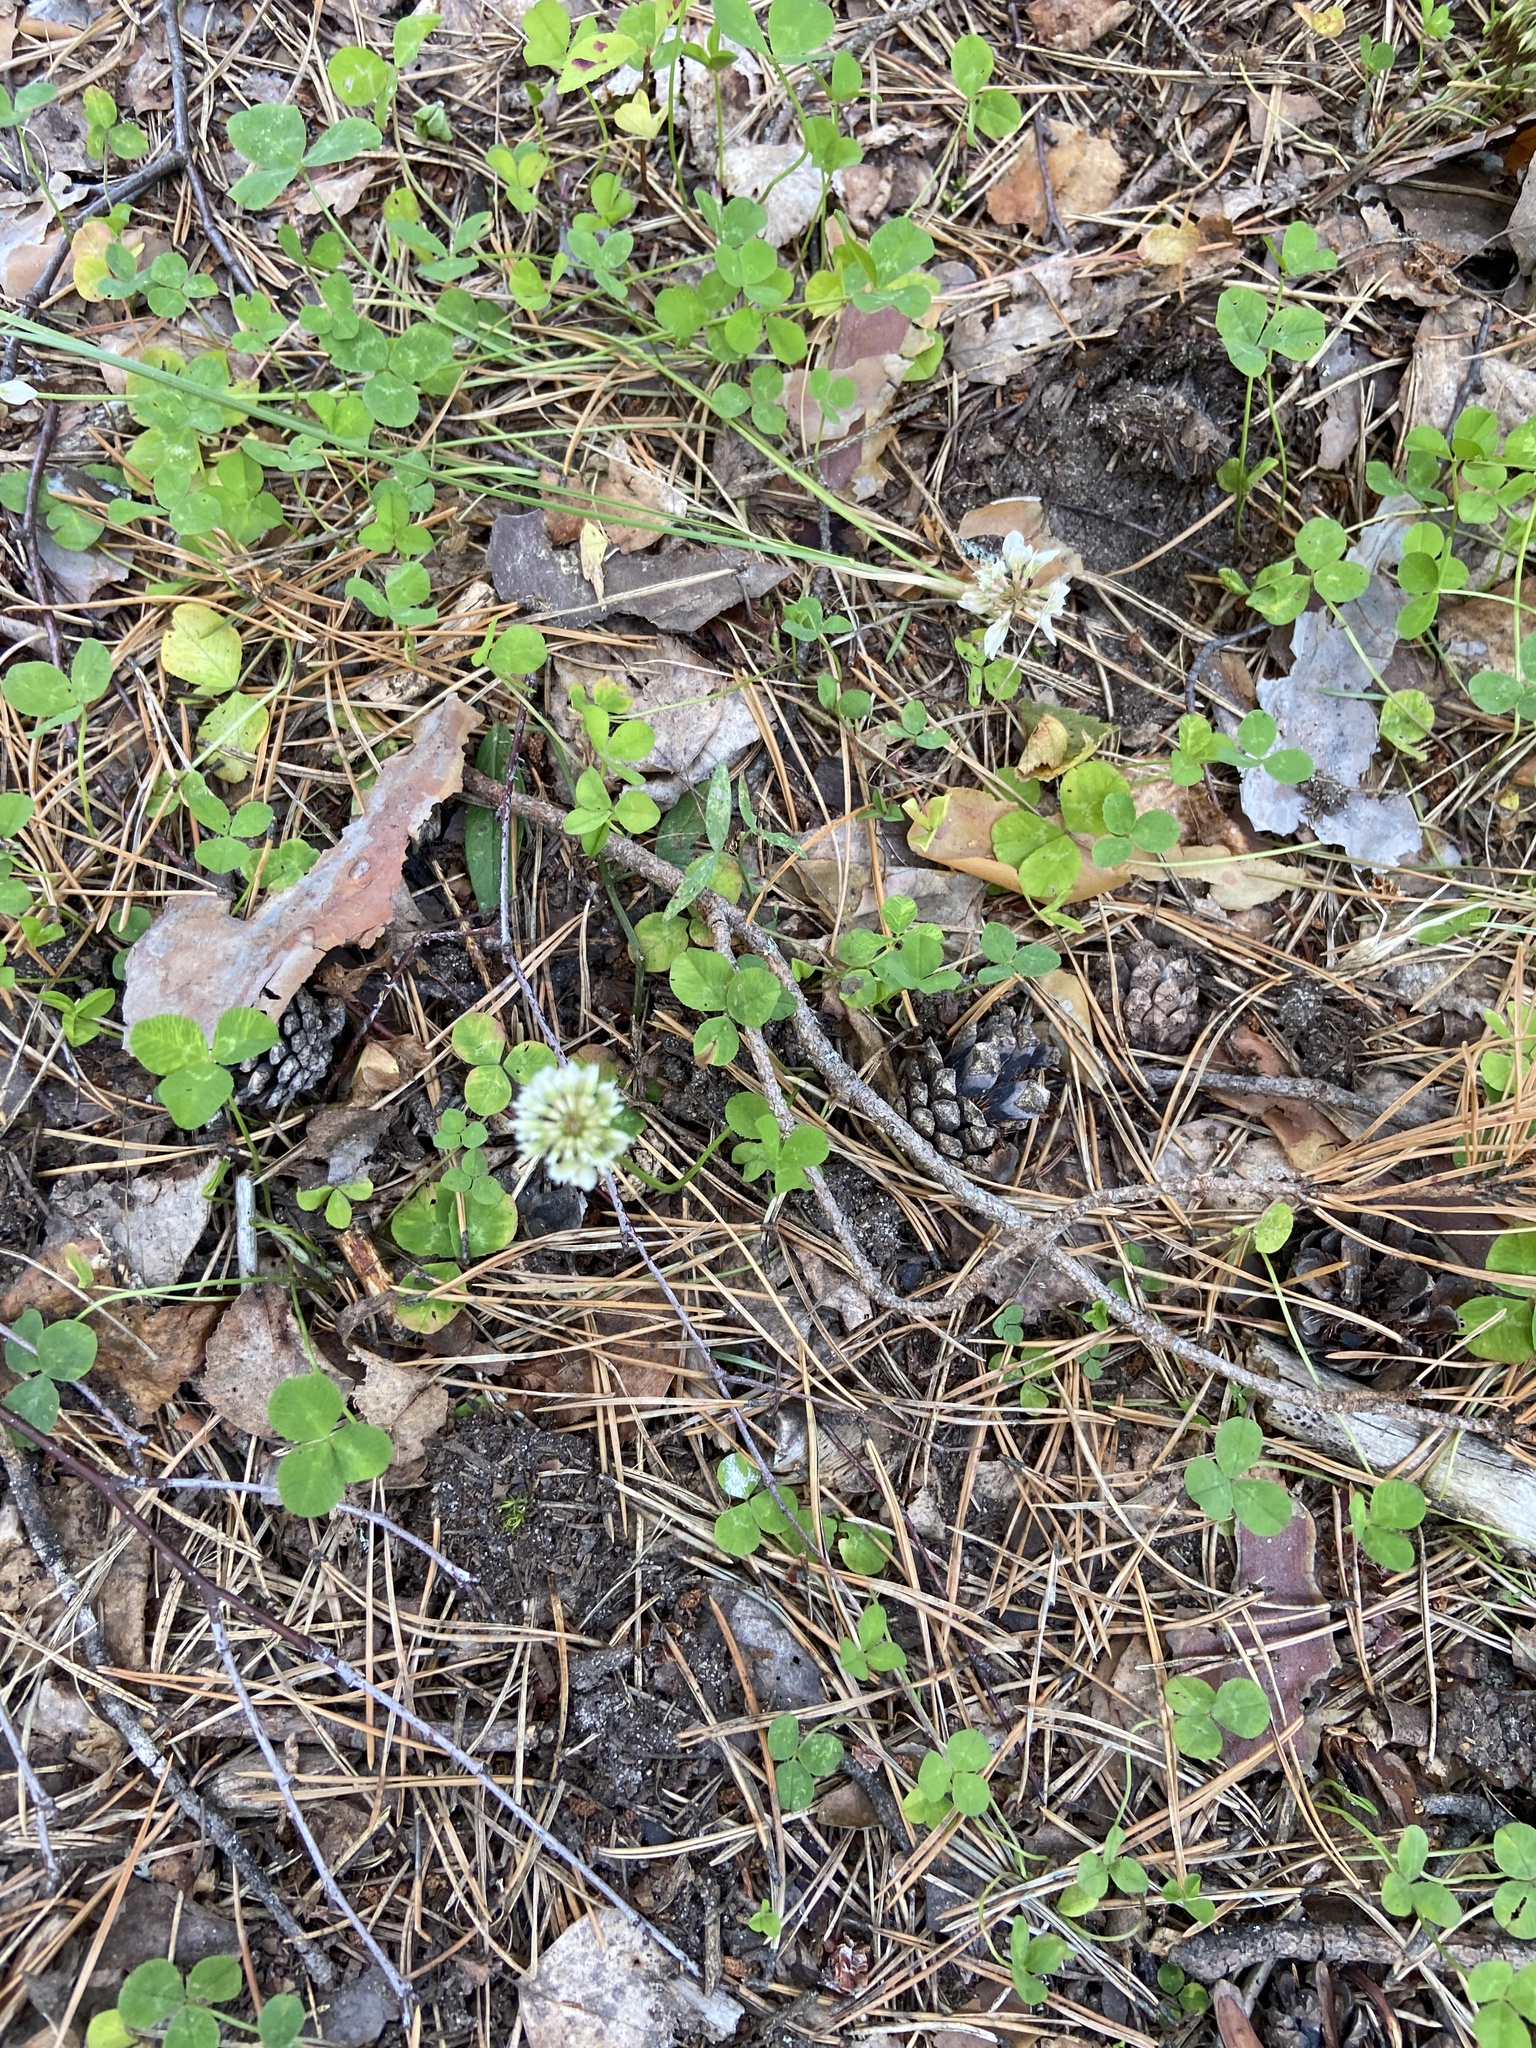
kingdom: Plantae
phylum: Tracheophyta
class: Magnoliopsida
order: Fabales
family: Fabaceae
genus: Trifolium
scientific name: Trifolium repens
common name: White clover
